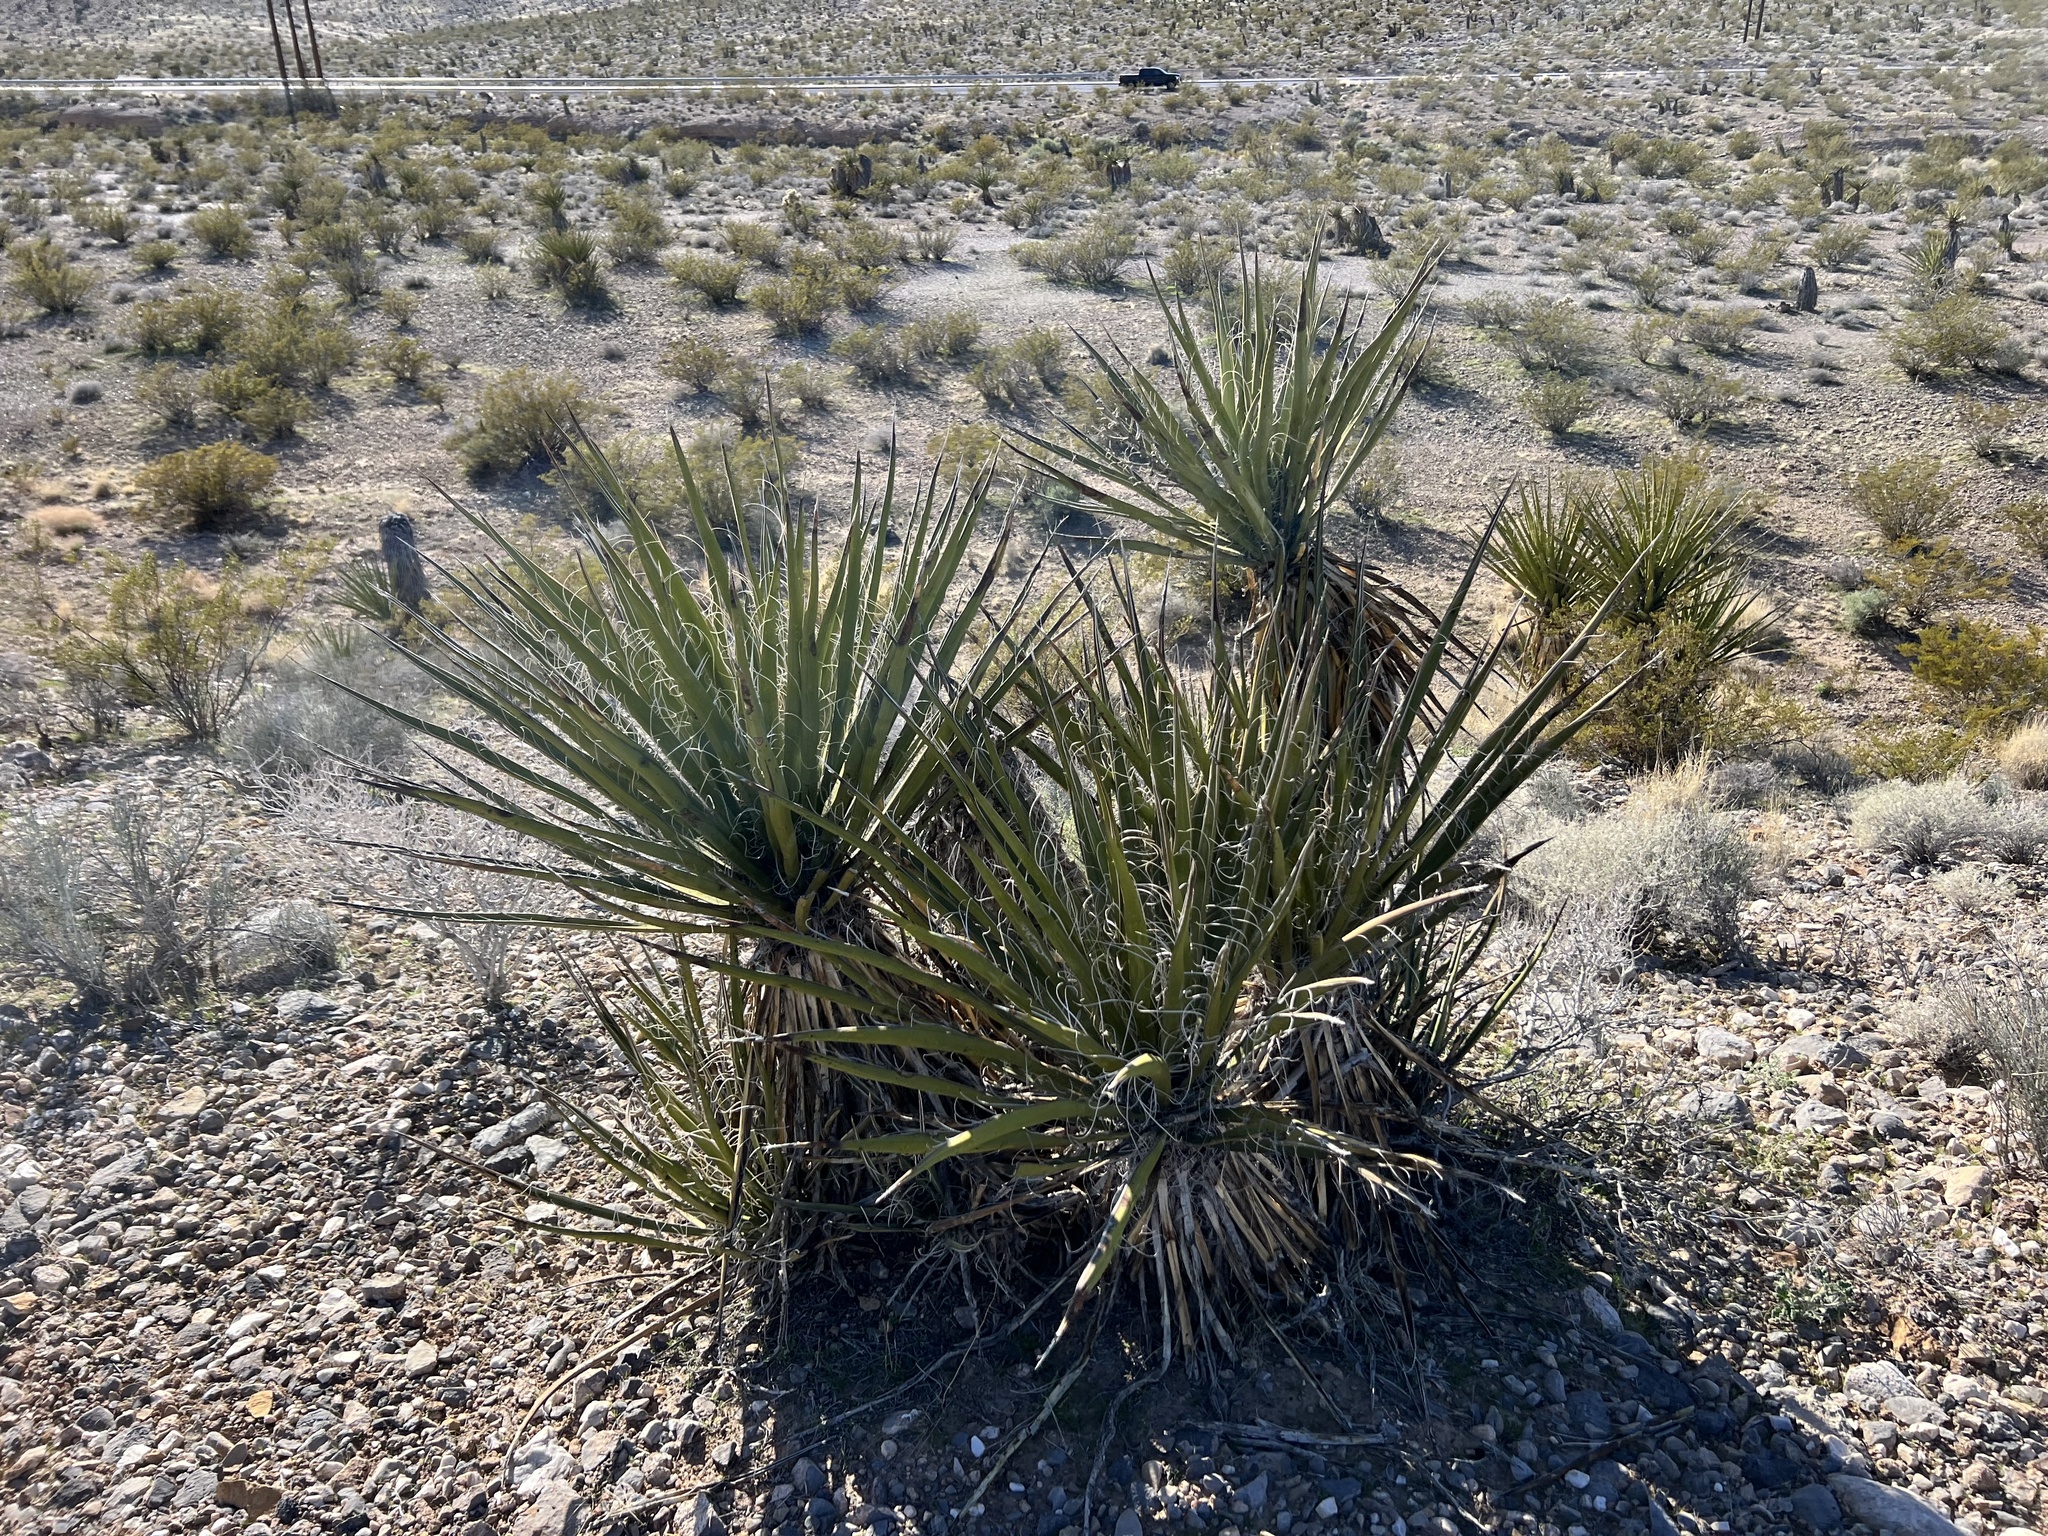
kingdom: Plantae
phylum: Tracheophyta
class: Liliopsida
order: Asparagales
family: Asparagaceae
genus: Yucca
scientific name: Yucca schidigera
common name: Mojave yucca
